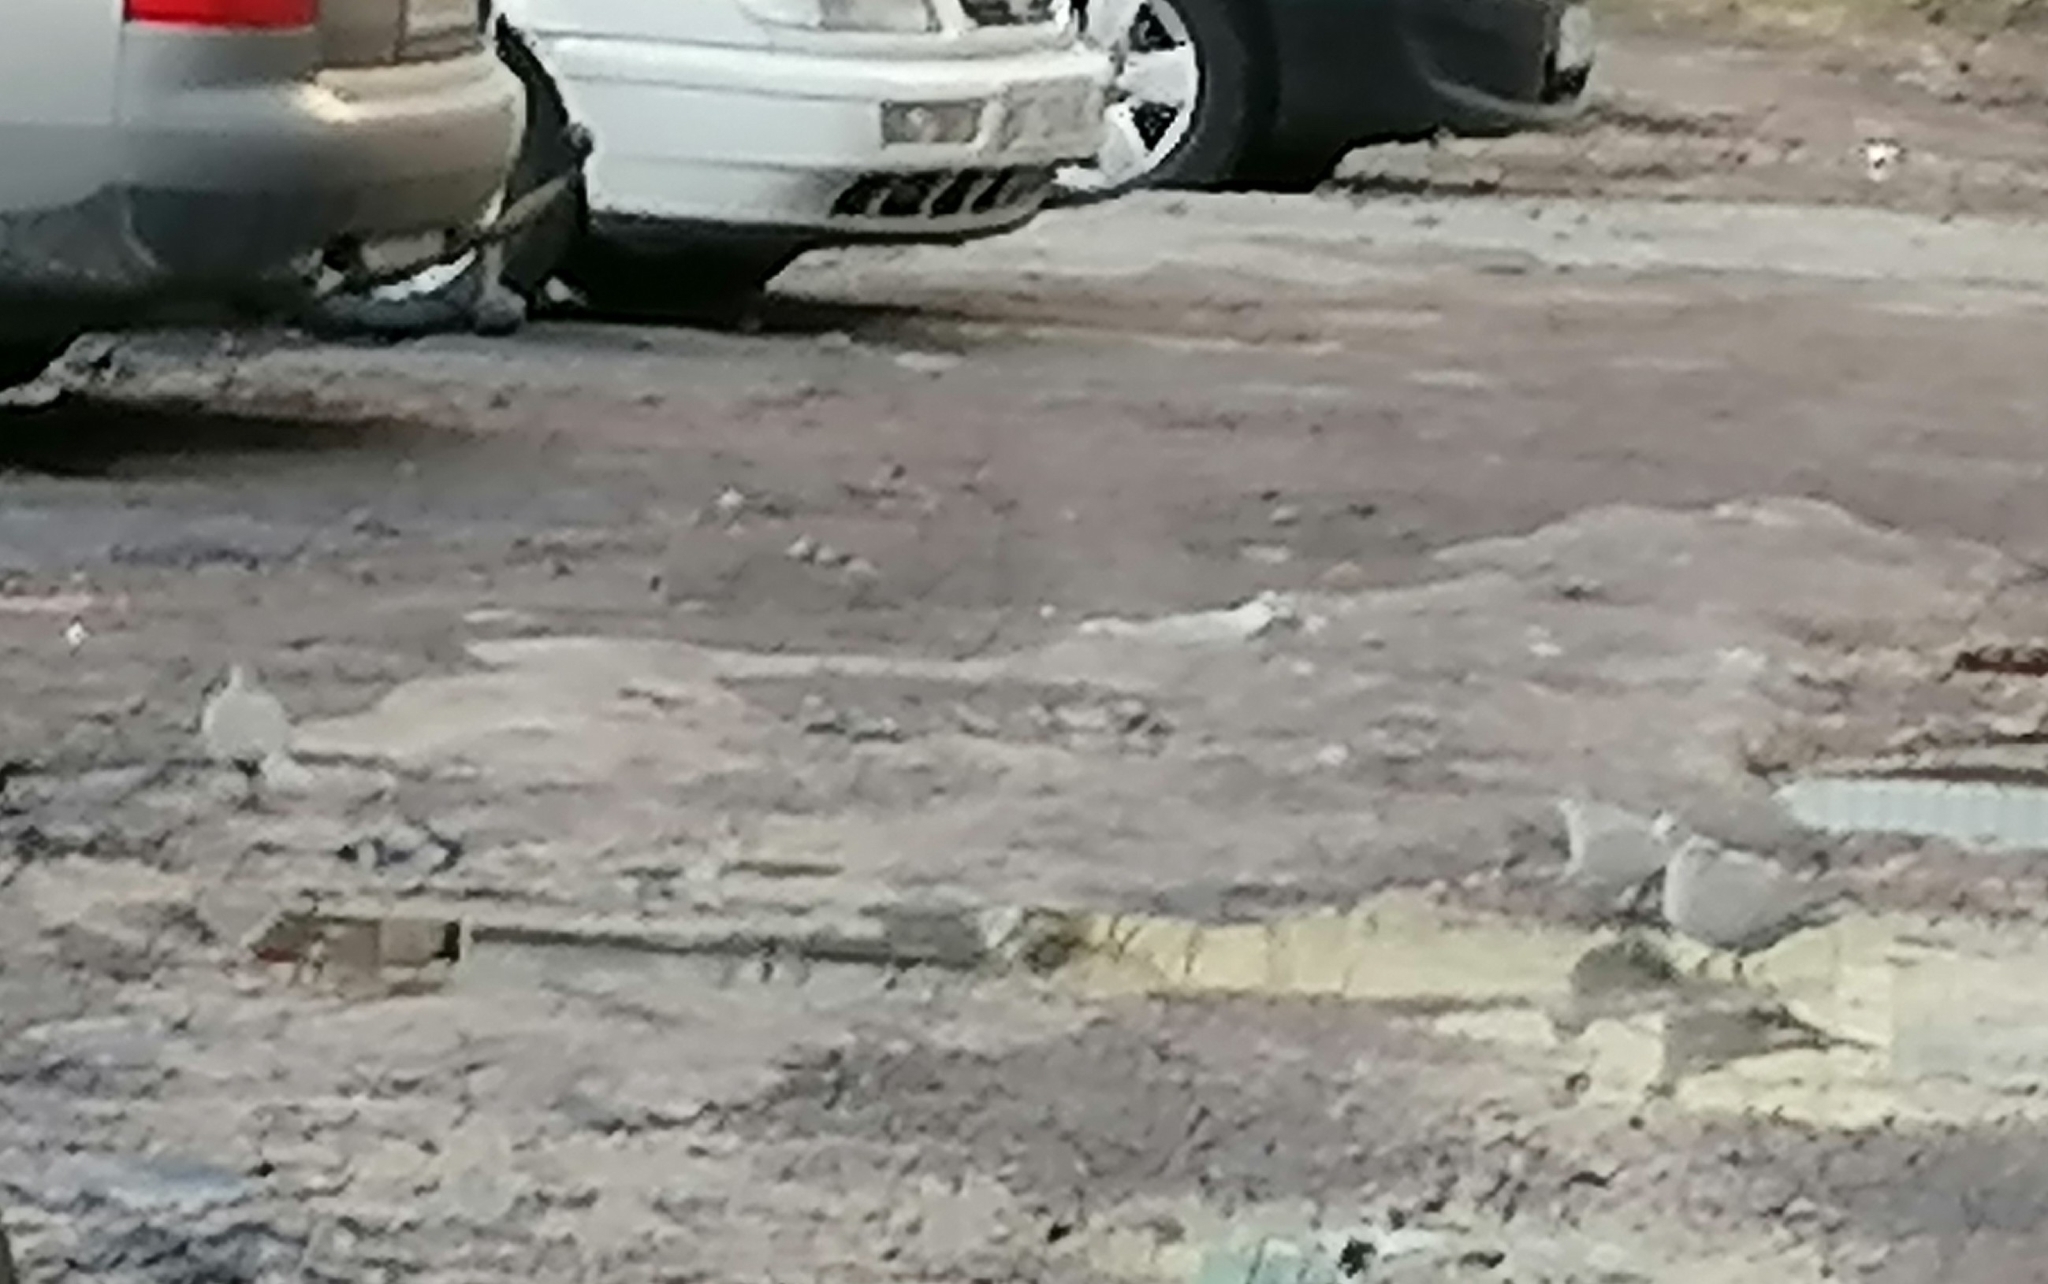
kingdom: Animalia
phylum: Chordata
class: Aves
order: Columbiformes
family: Columbidae
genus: Streptopelia
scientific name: Streptopelia decaocto
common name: Eurasian collared dove
